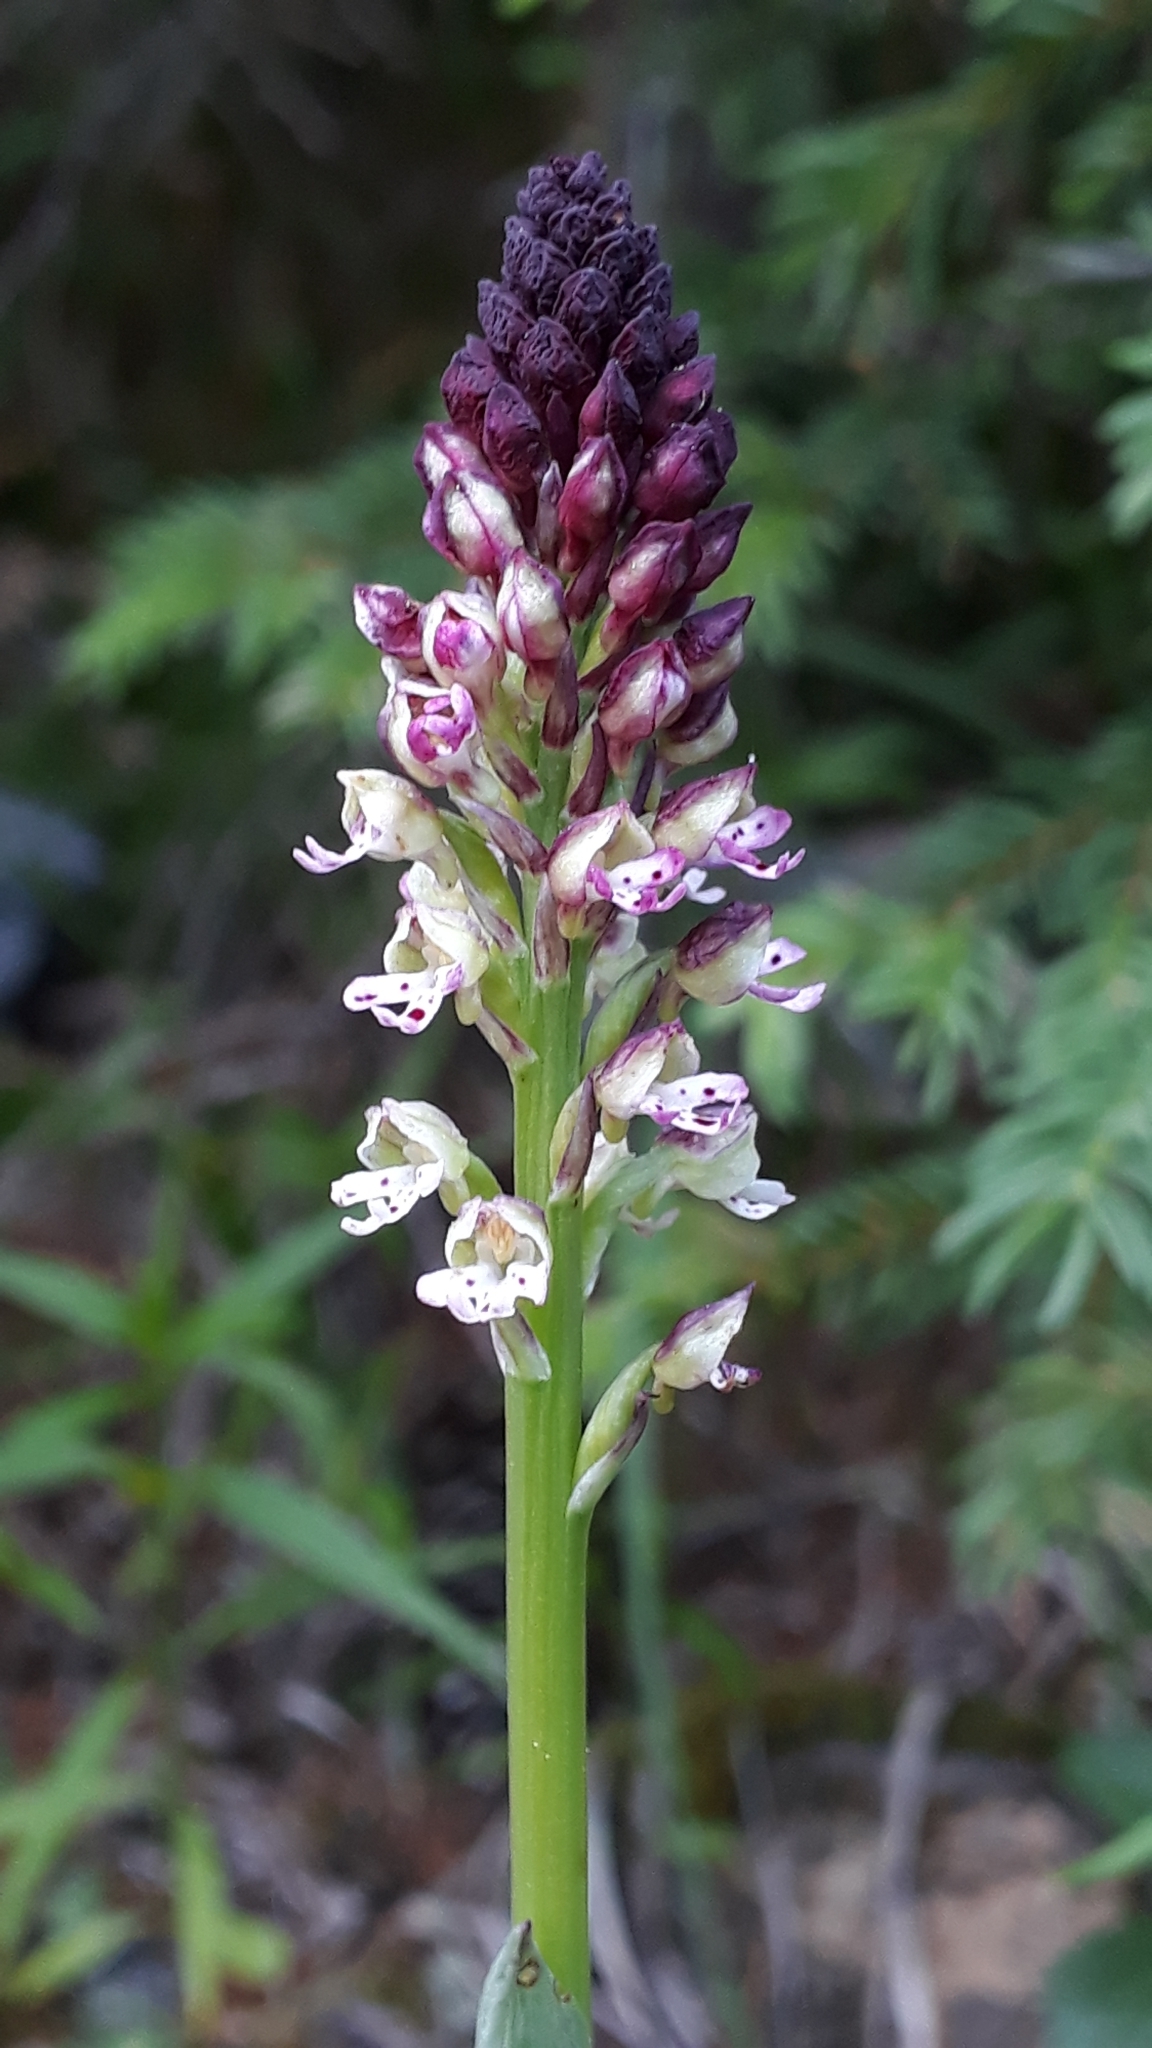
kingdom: Plantae
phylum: Tracheophyta
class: Liliopsida
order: Asparagales
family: Orchidaceae
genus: Neotinea
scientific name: Neotinea ustulata
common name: Burnt orchid
